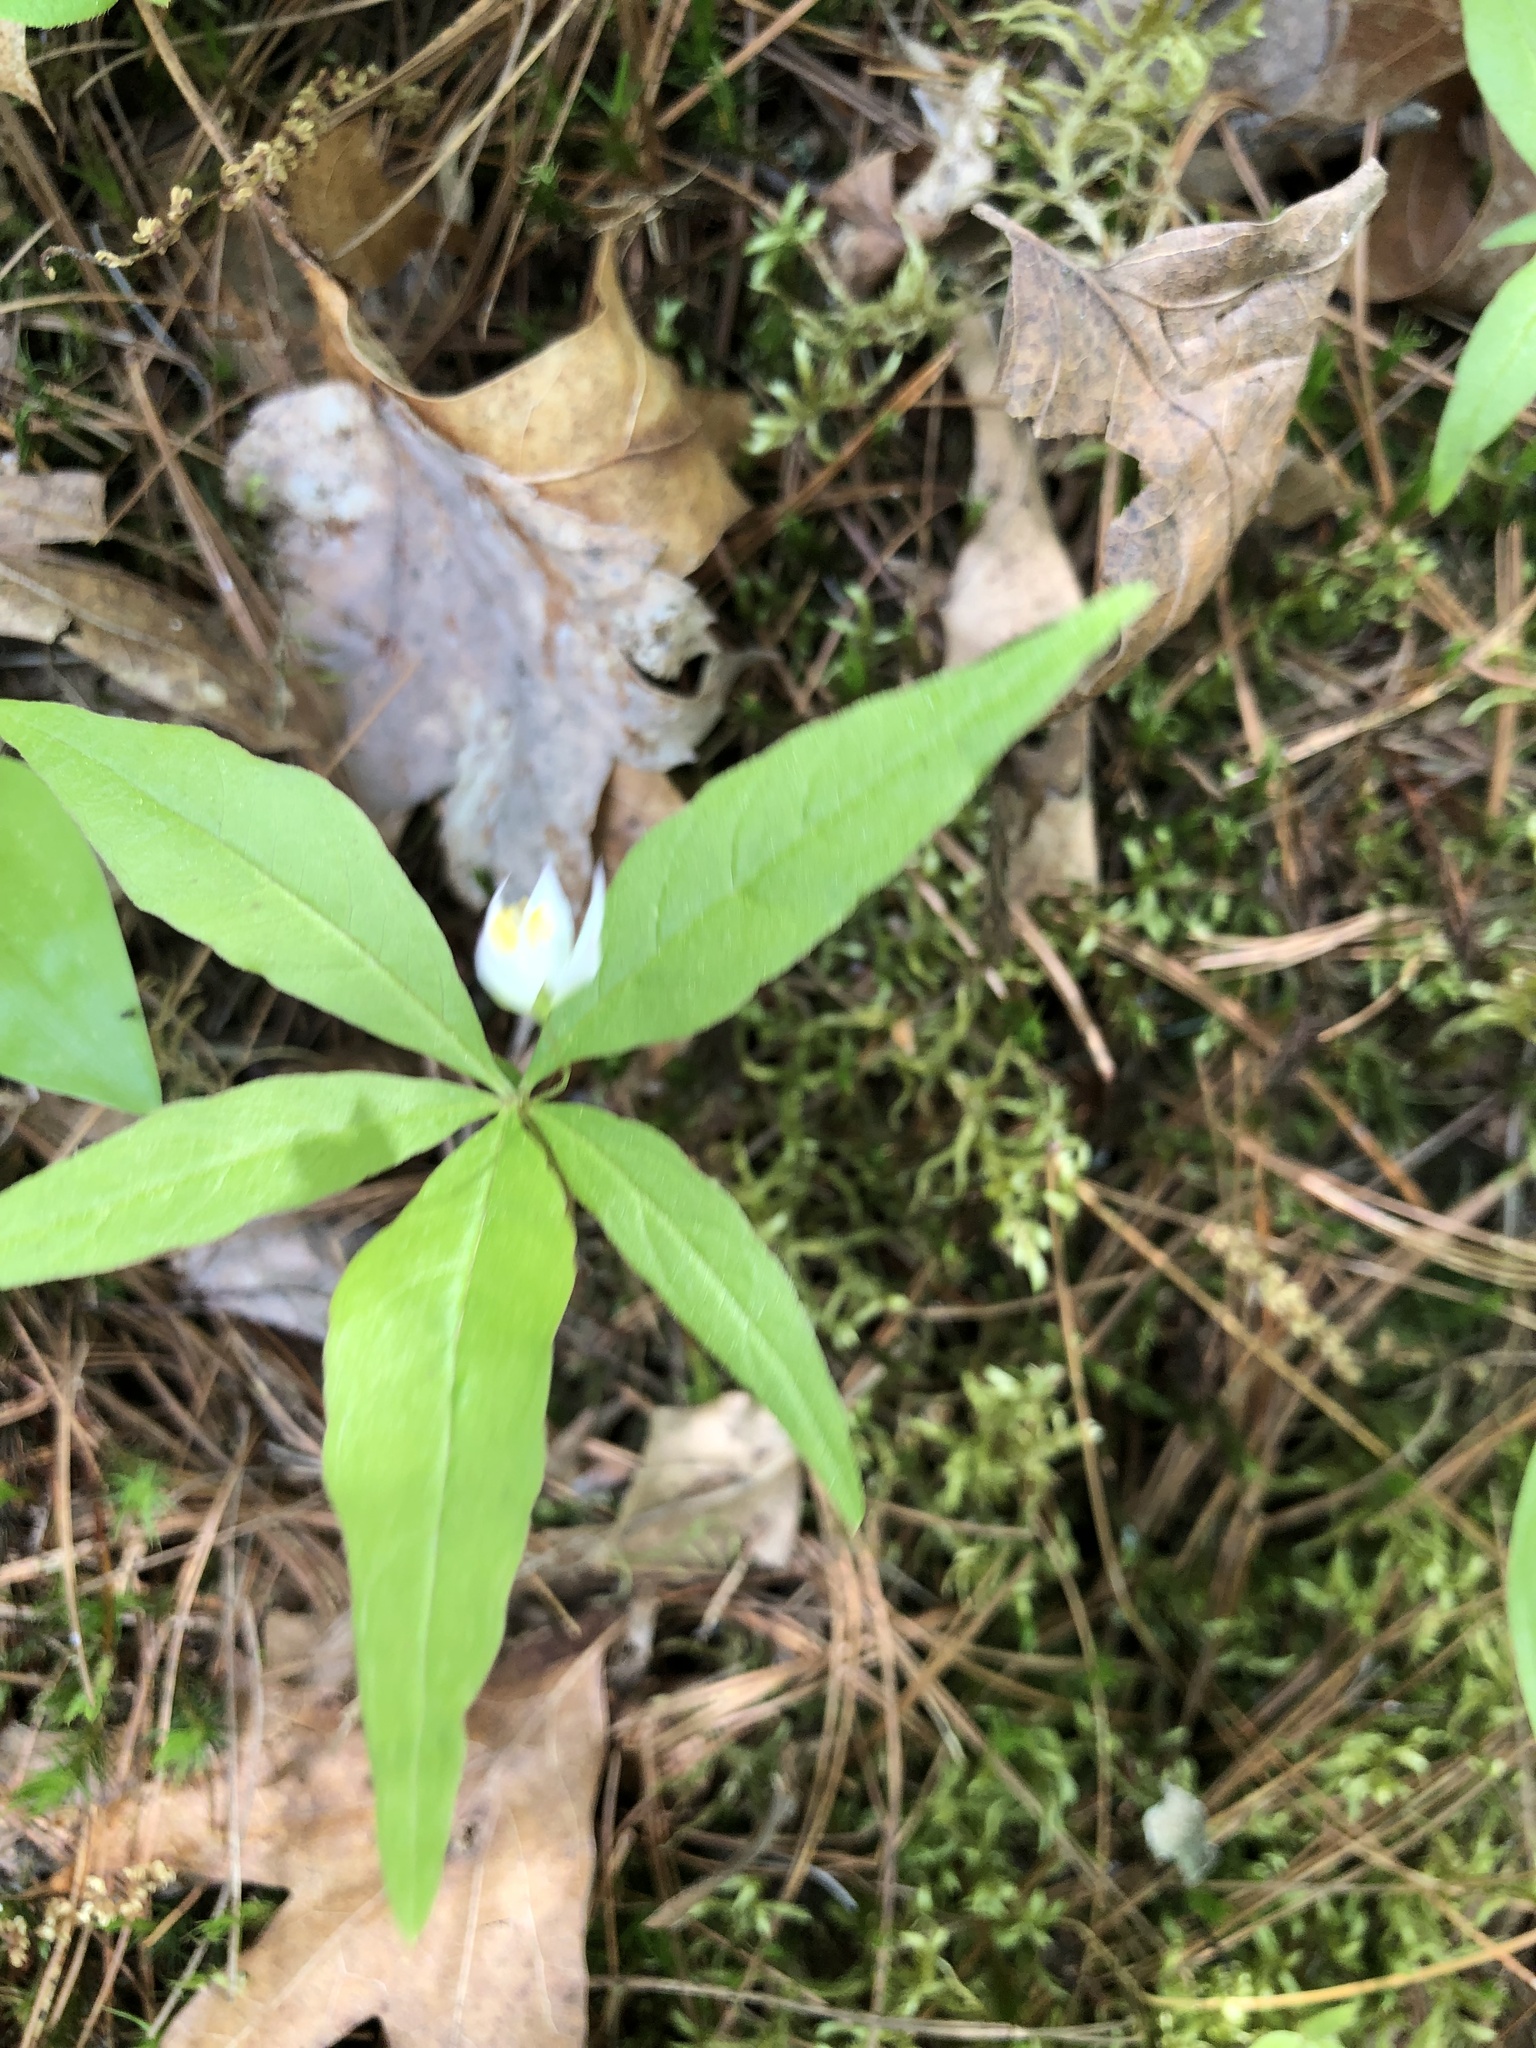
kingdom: Plantae
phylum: Tracheophyta
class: Magnoliopsida
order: Ericales
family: Primulaceae
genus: Lysimachia
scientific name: Lysimachia borealis
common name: American starflower
